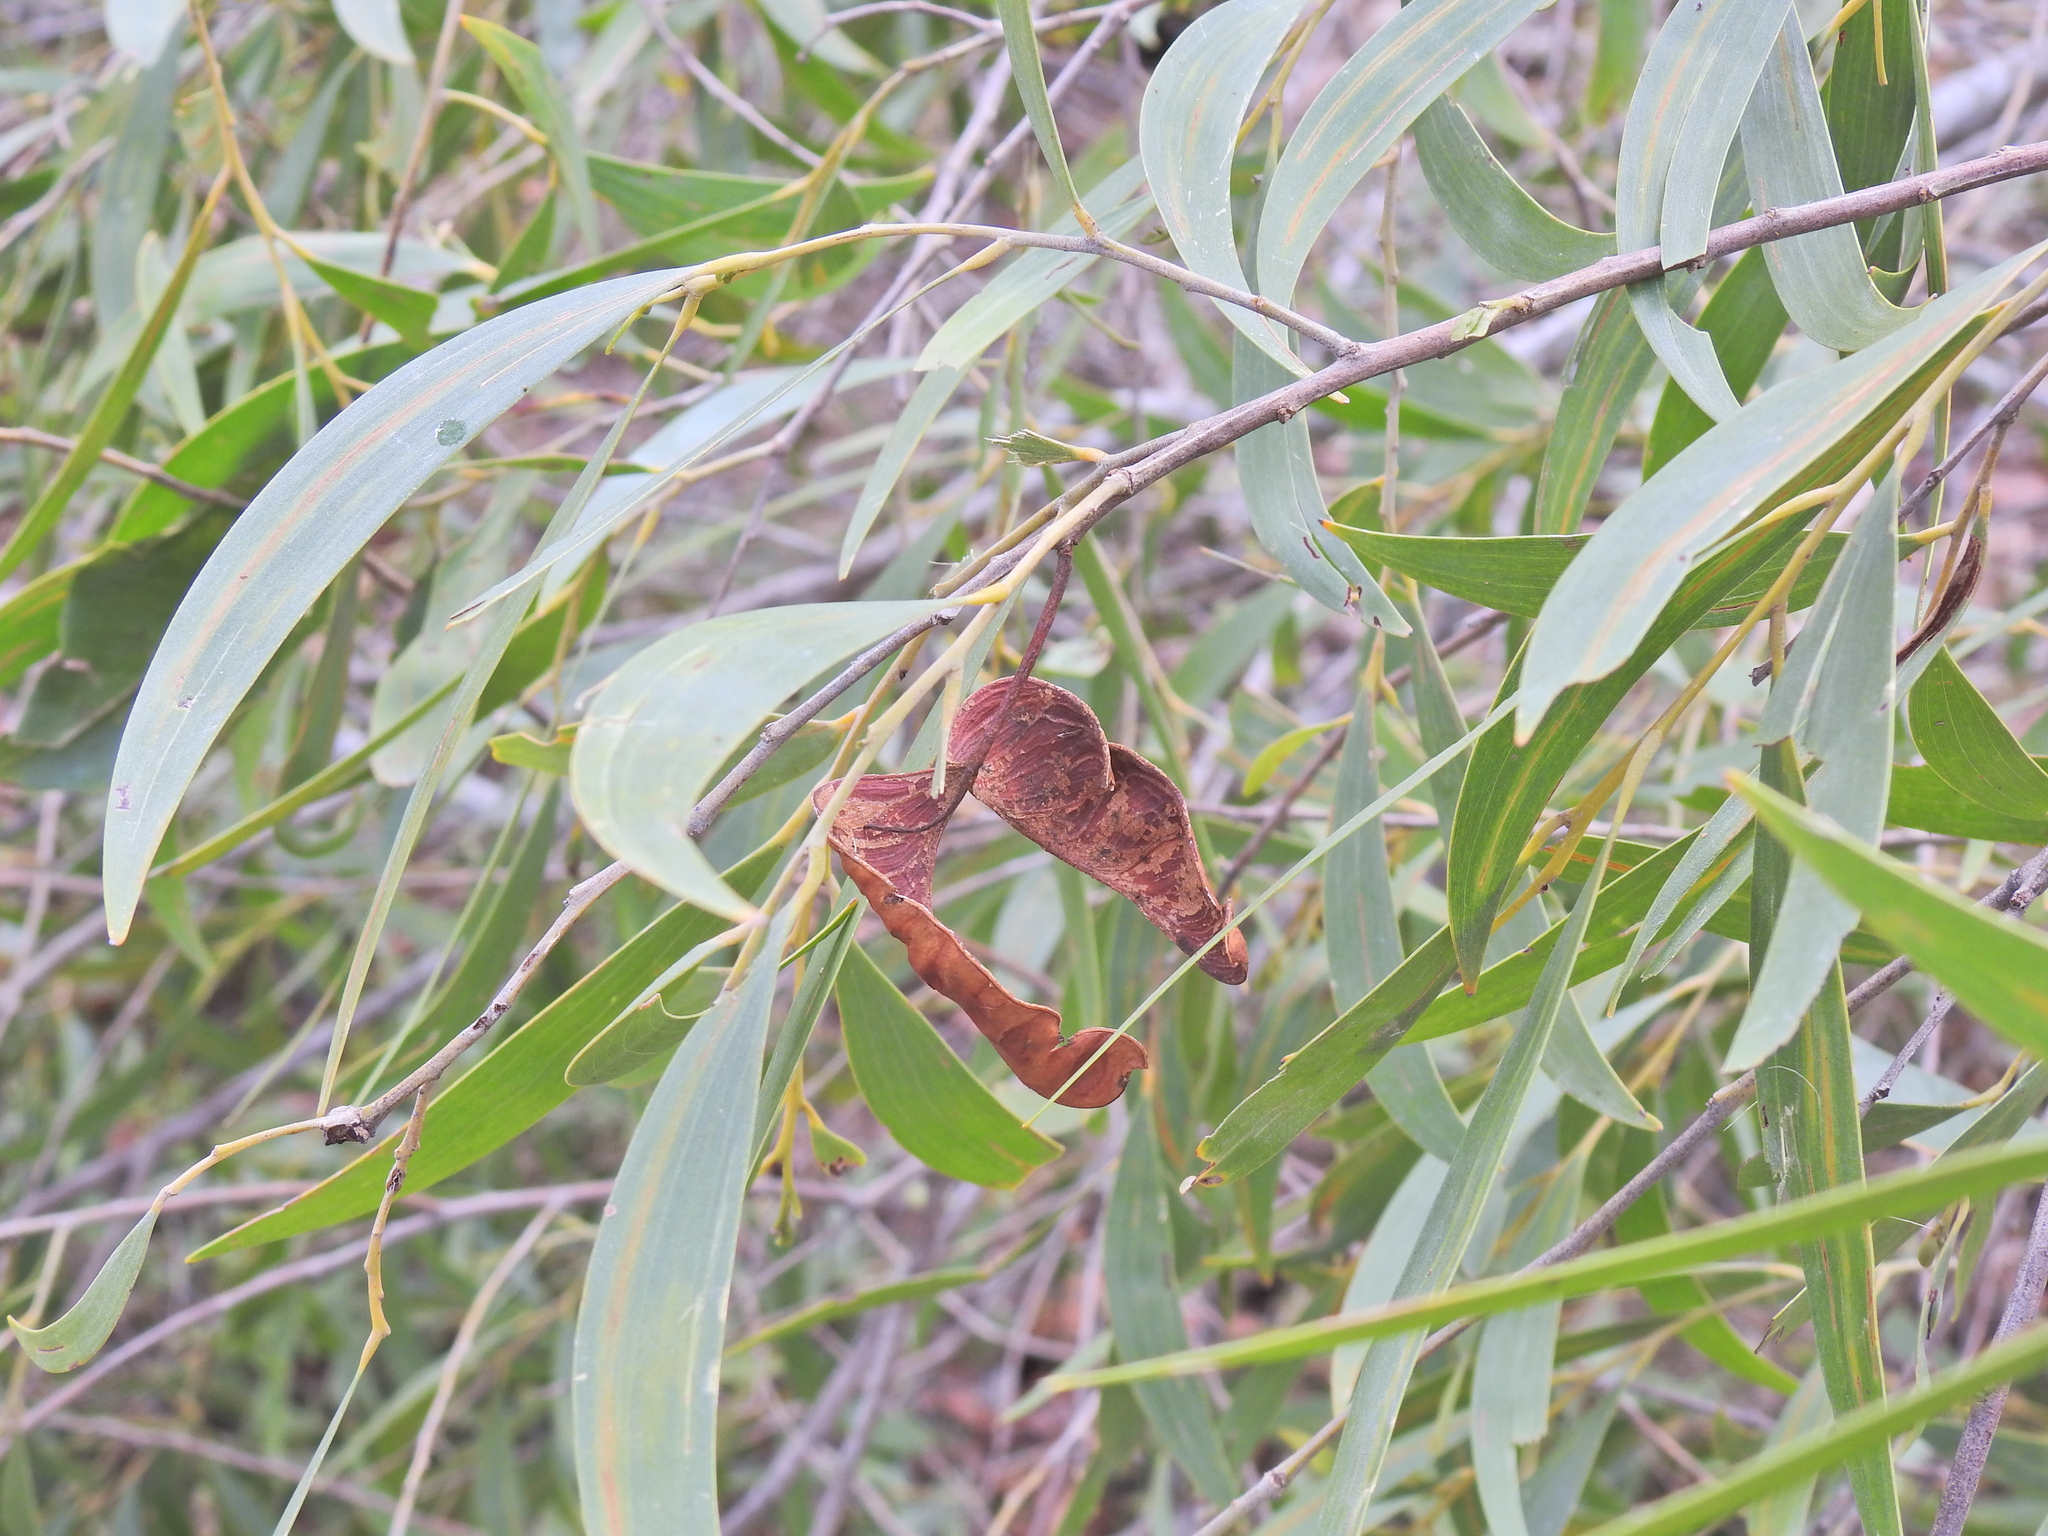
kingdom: Plantae
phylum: Tracheophyta
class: Magnoliopsida
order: Fabales
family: Fabaceae
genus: Acacia
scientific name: Acacia disparrima
